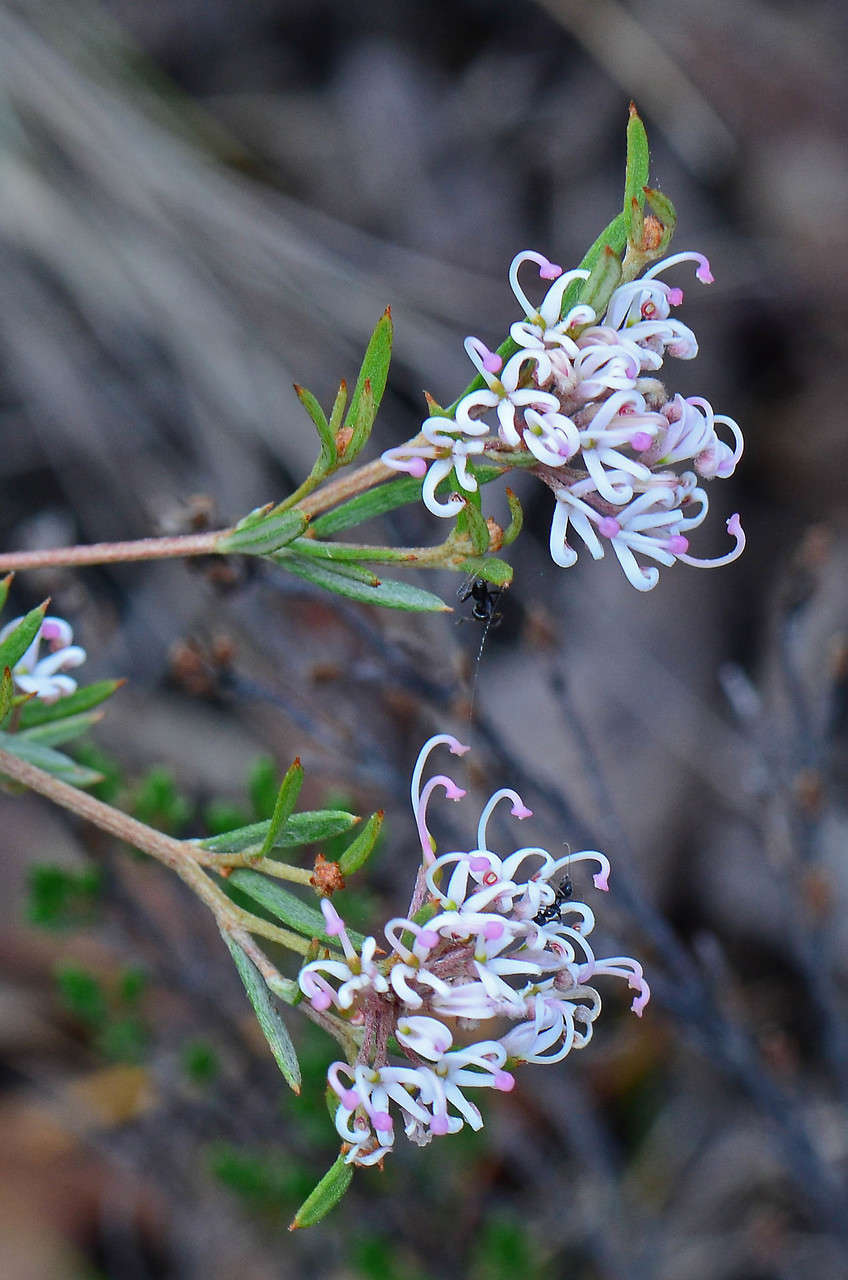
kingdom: Plantae
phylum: Tracheophyta
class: Magnoliopsida
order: Proteales
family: Proteaceae
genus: Grevillea
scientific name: Grevillea alpivaga
